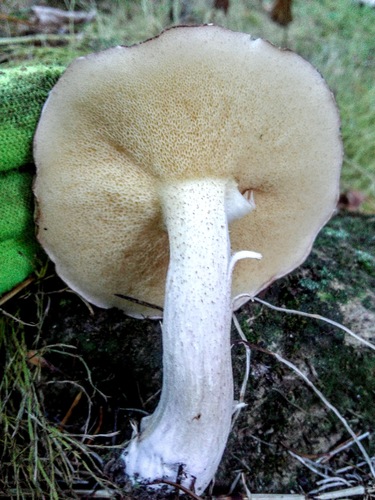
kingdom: Fungi
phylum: Basidiomycota
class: Agaricomycetes
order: Boletales
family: Suillaceae
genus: Suillus
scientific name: Suillus placidus
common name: Slippery white bolete
